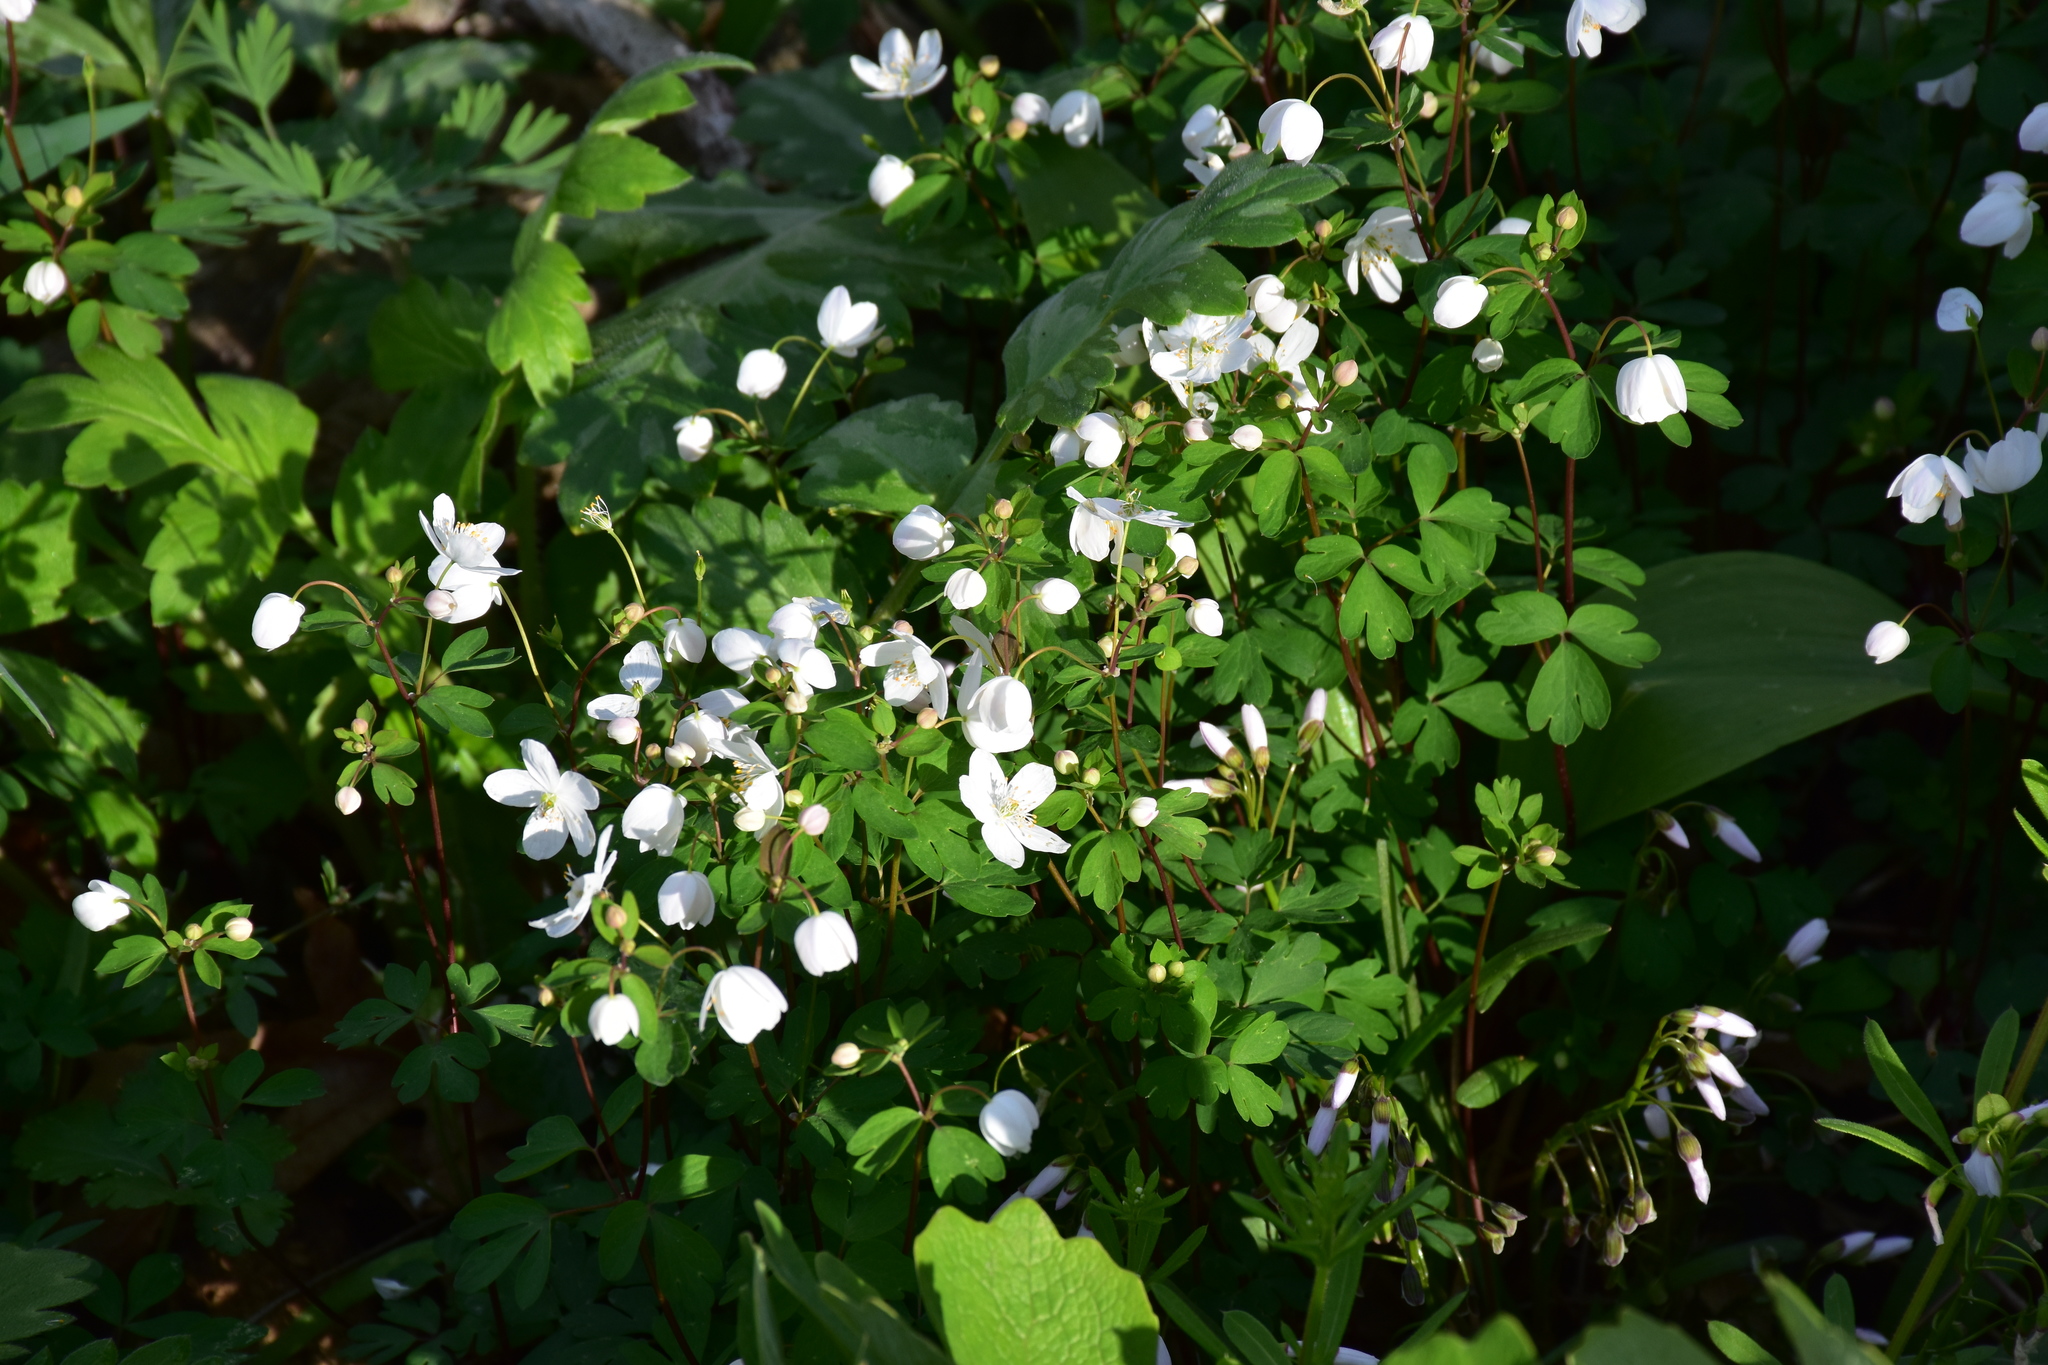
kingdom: Plantae
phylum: Tracheophyta
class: Magnoliopsida
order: Ranunculales
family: Ranunculaceae
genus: Enemion
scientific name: Enemion biternatum
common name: Eastern false rue-anemone
